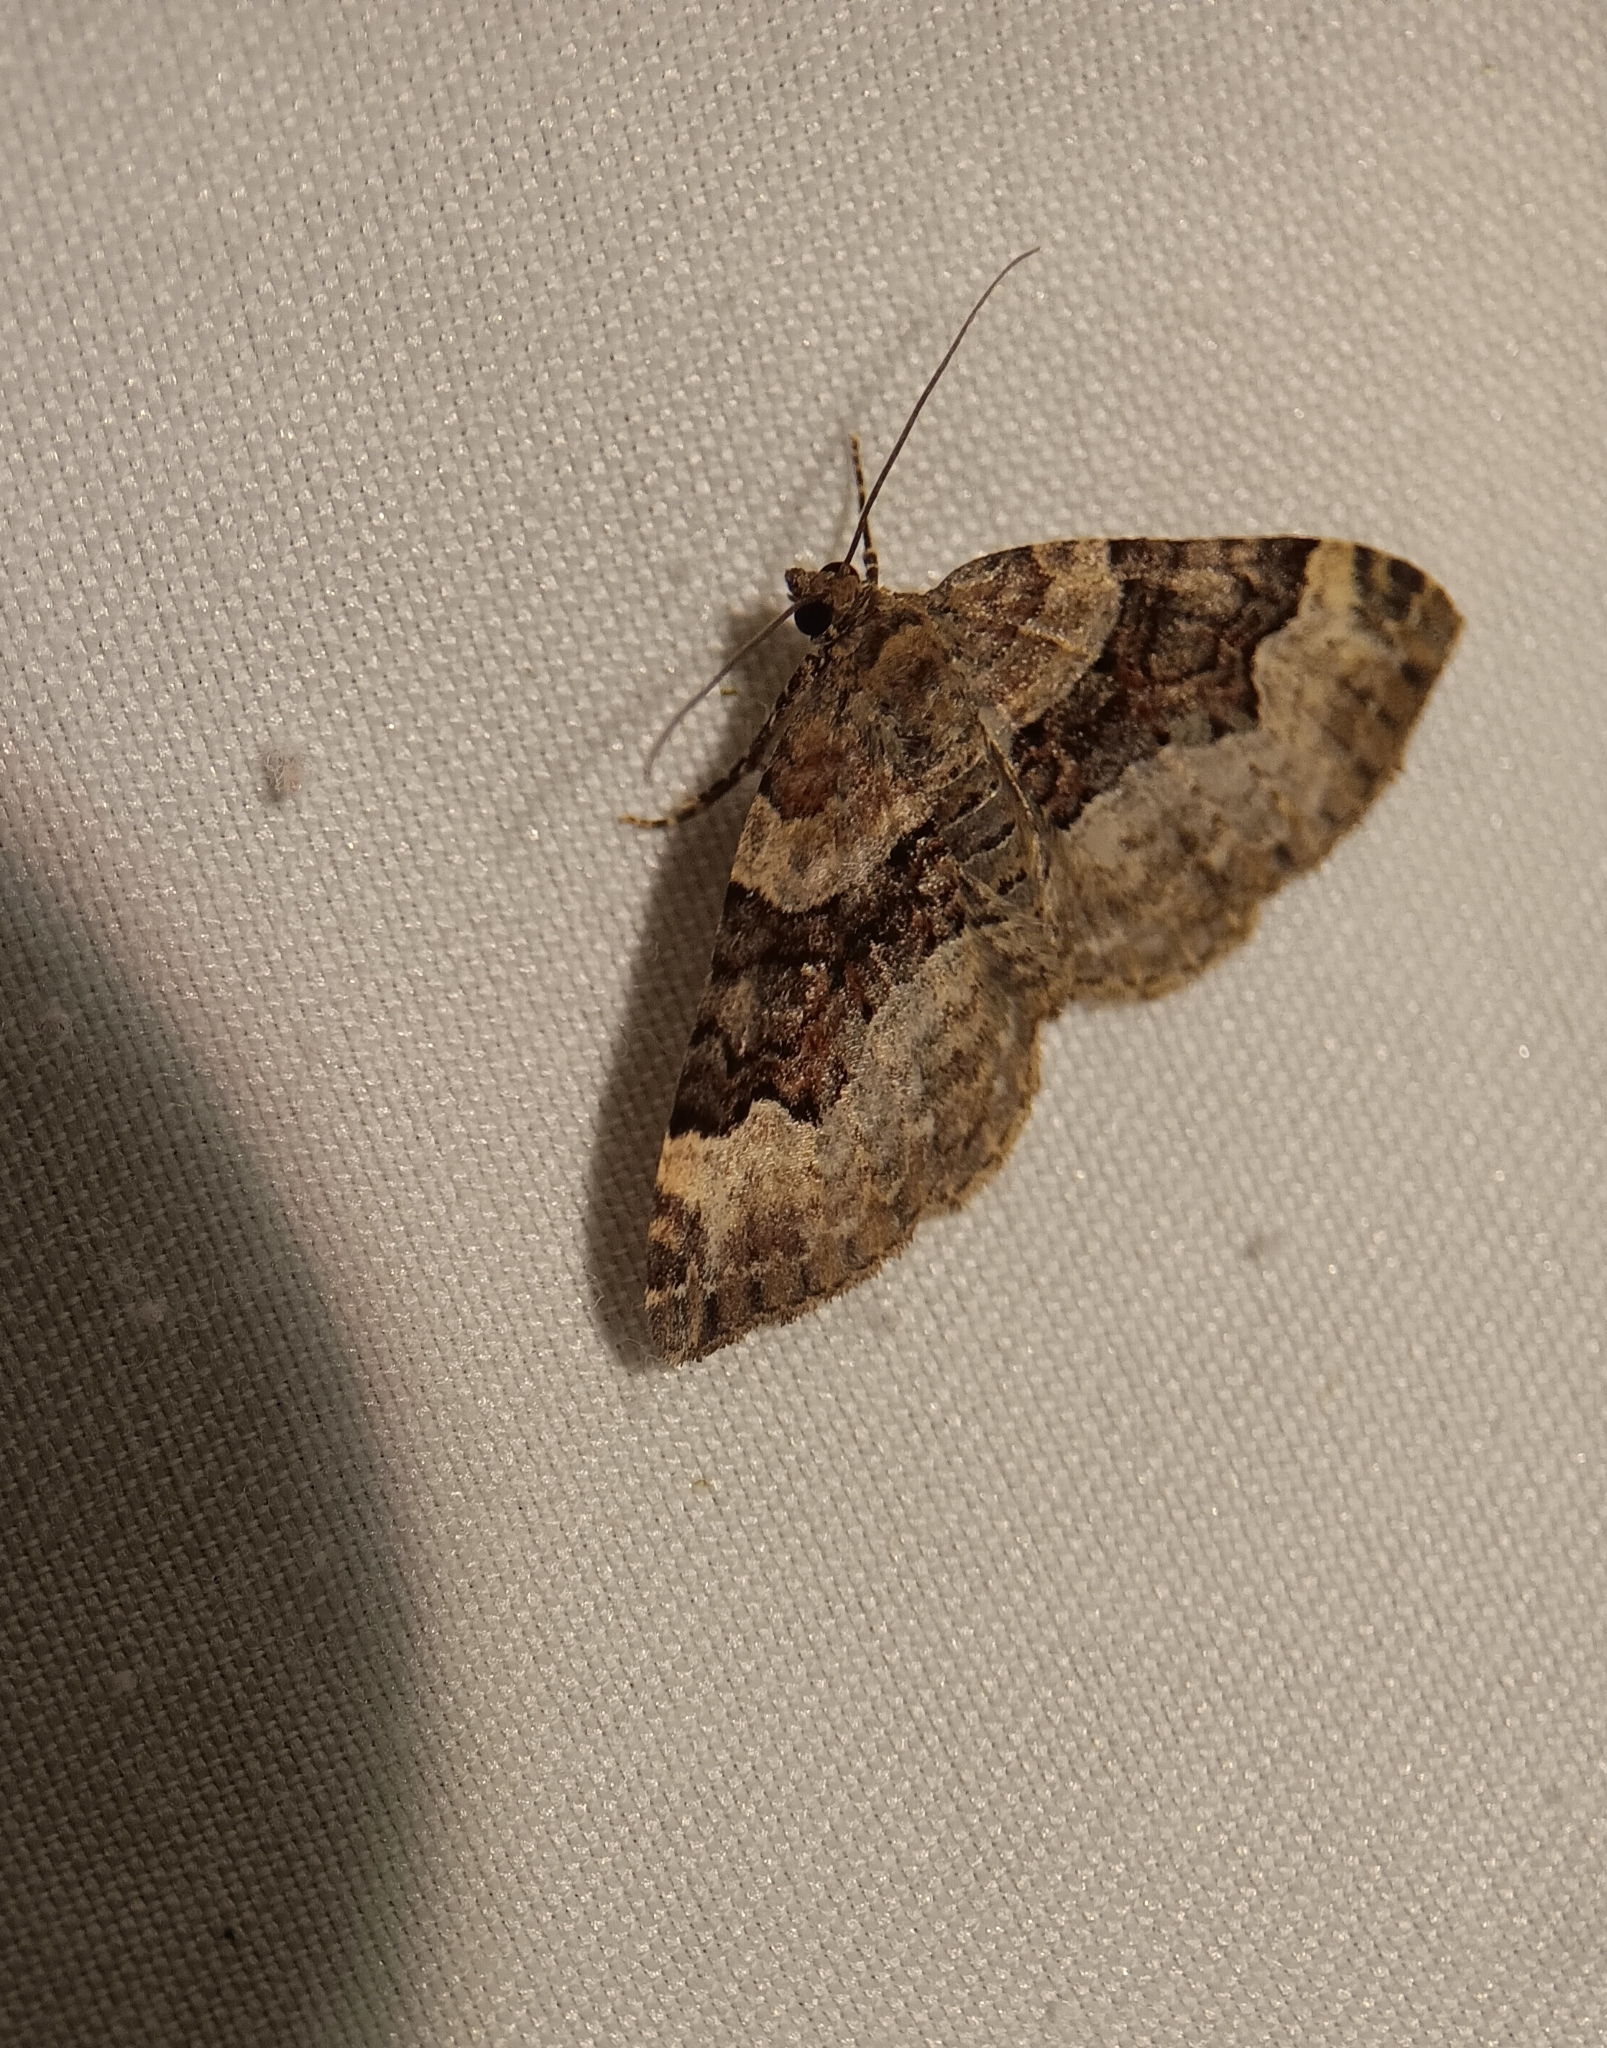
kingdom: Animalia
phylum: Arthropoda
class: Insecta
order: Lepidoptera
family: Geometridae
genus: Xanthorhoe
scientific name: Xanthorhoe lacustrata
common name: Toothed brown carpet
